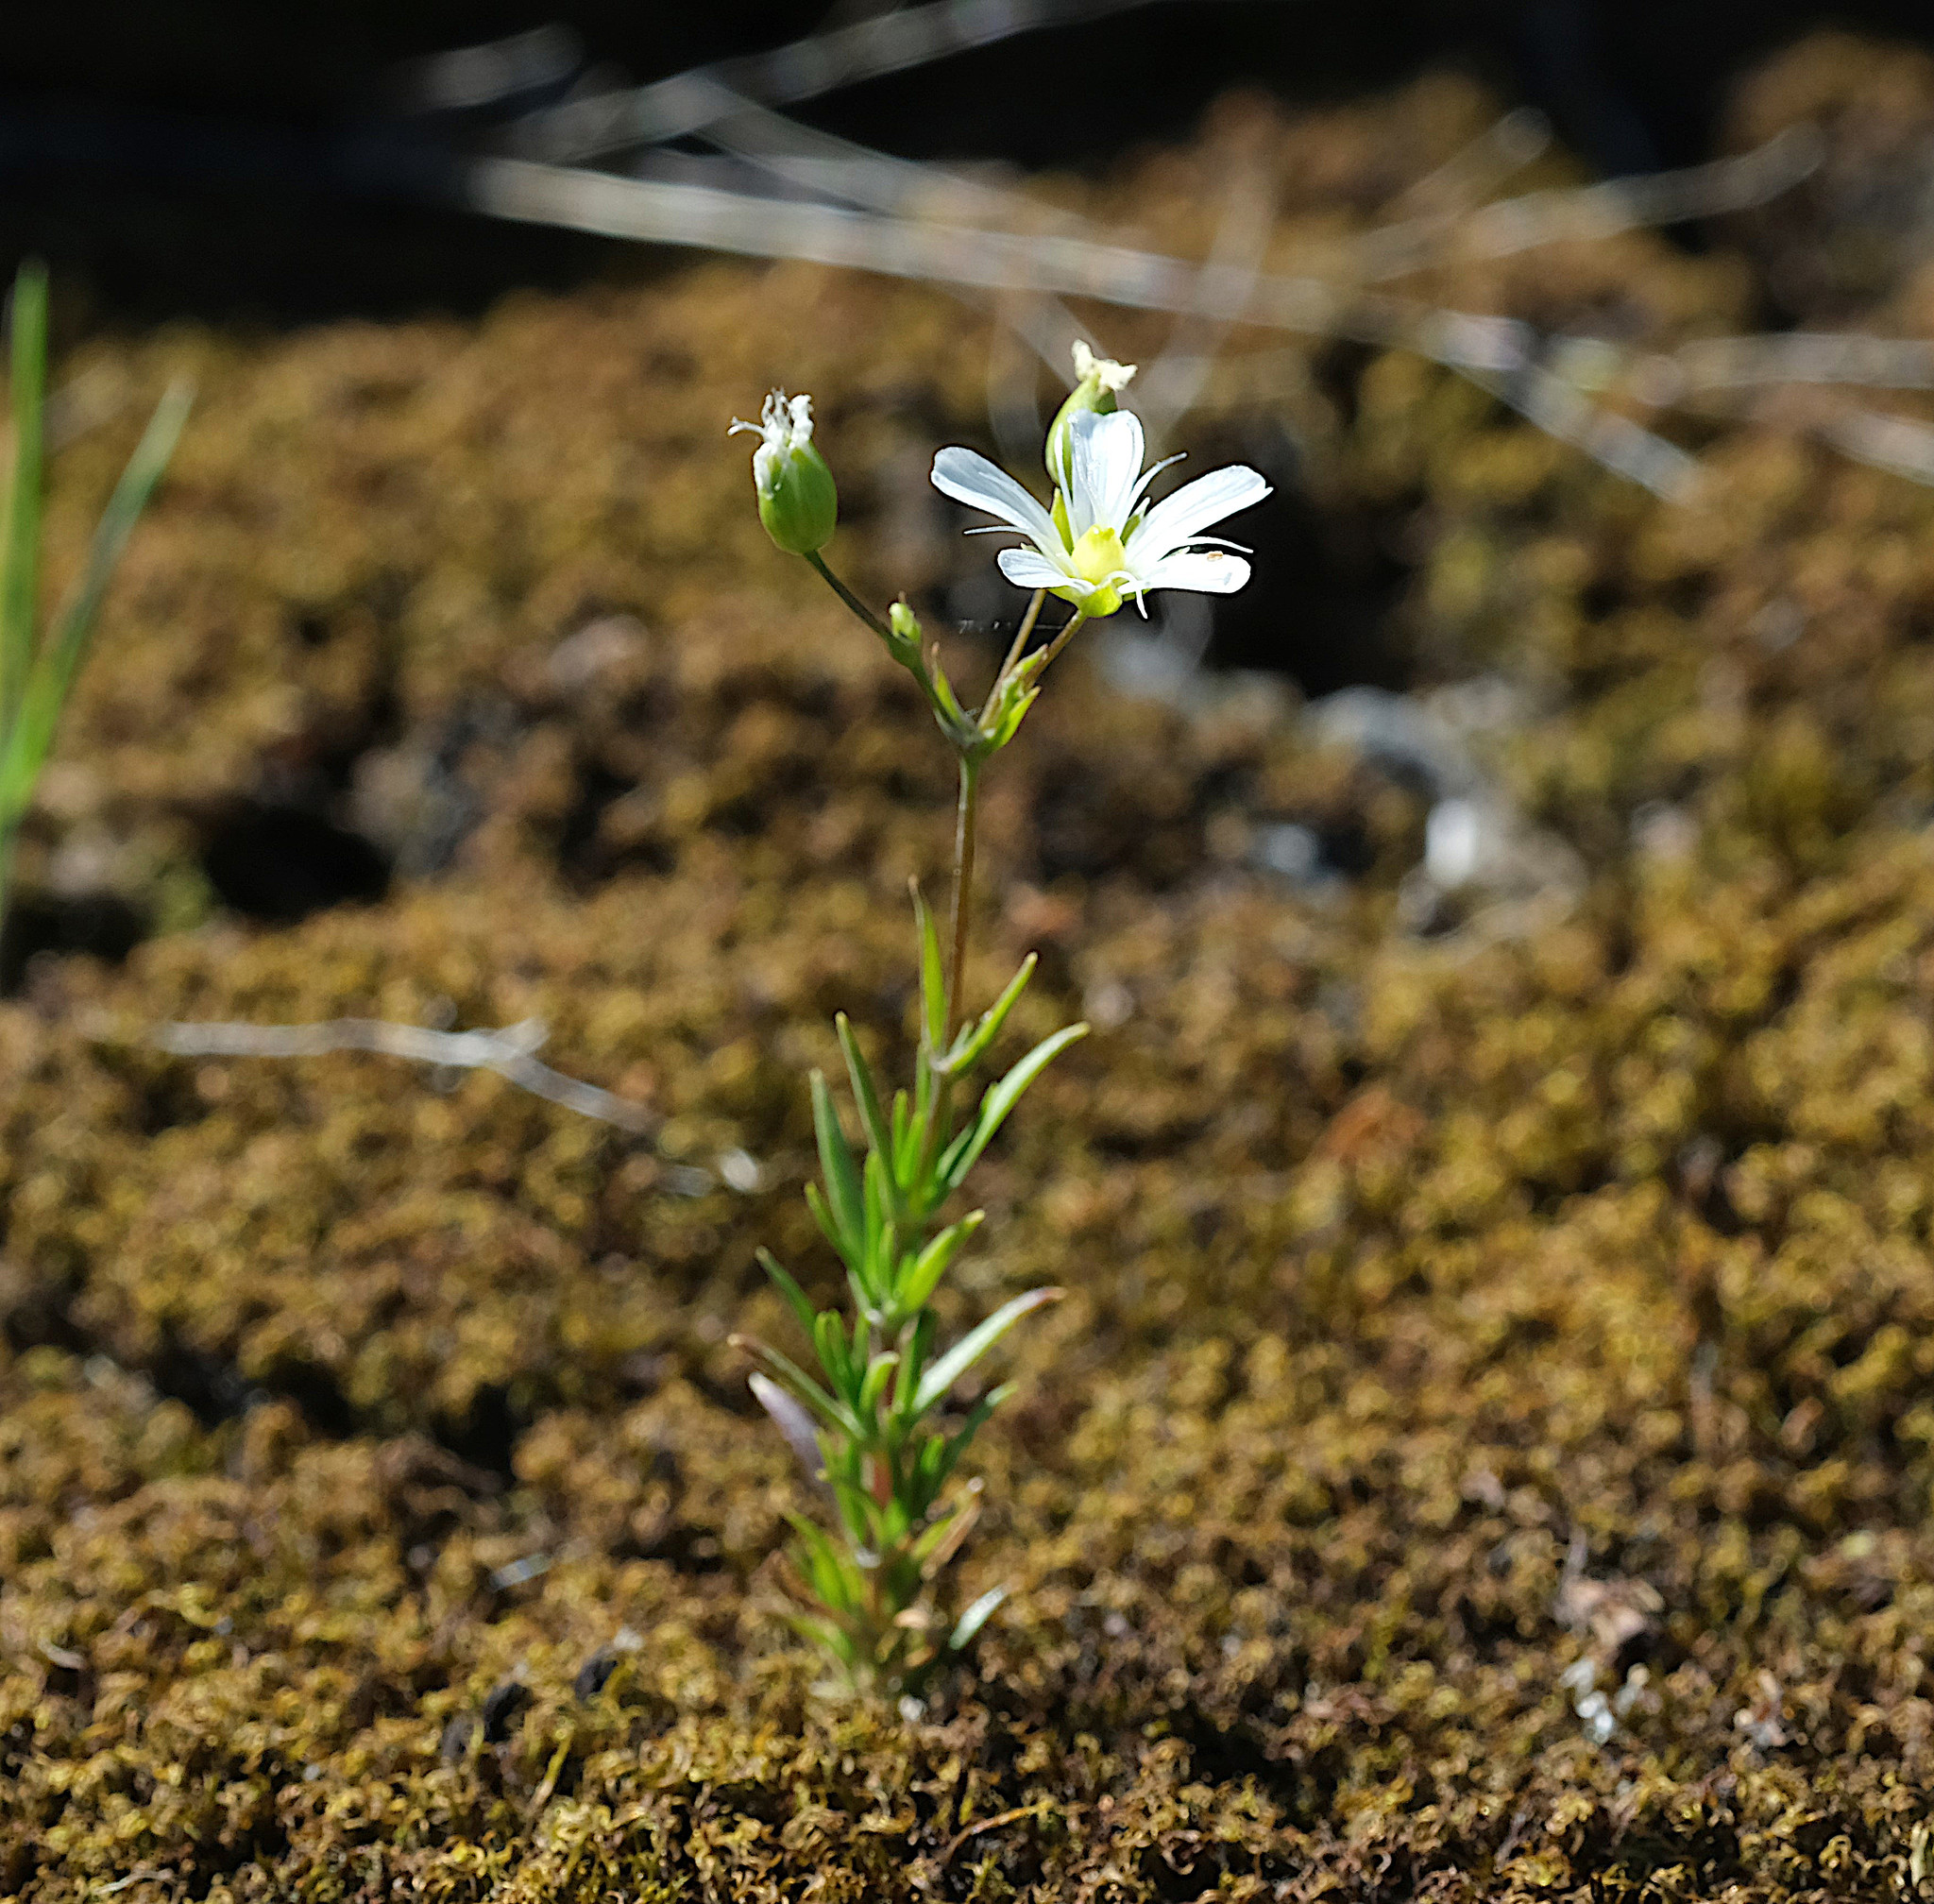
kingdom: Plantae
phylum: Tracheophyta
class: Magnoliopsida
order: Caryophyllales
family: Caryophyllaceae
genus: Sabulina
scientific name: Sabulina michauxii
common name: Michaux's stitchwort
